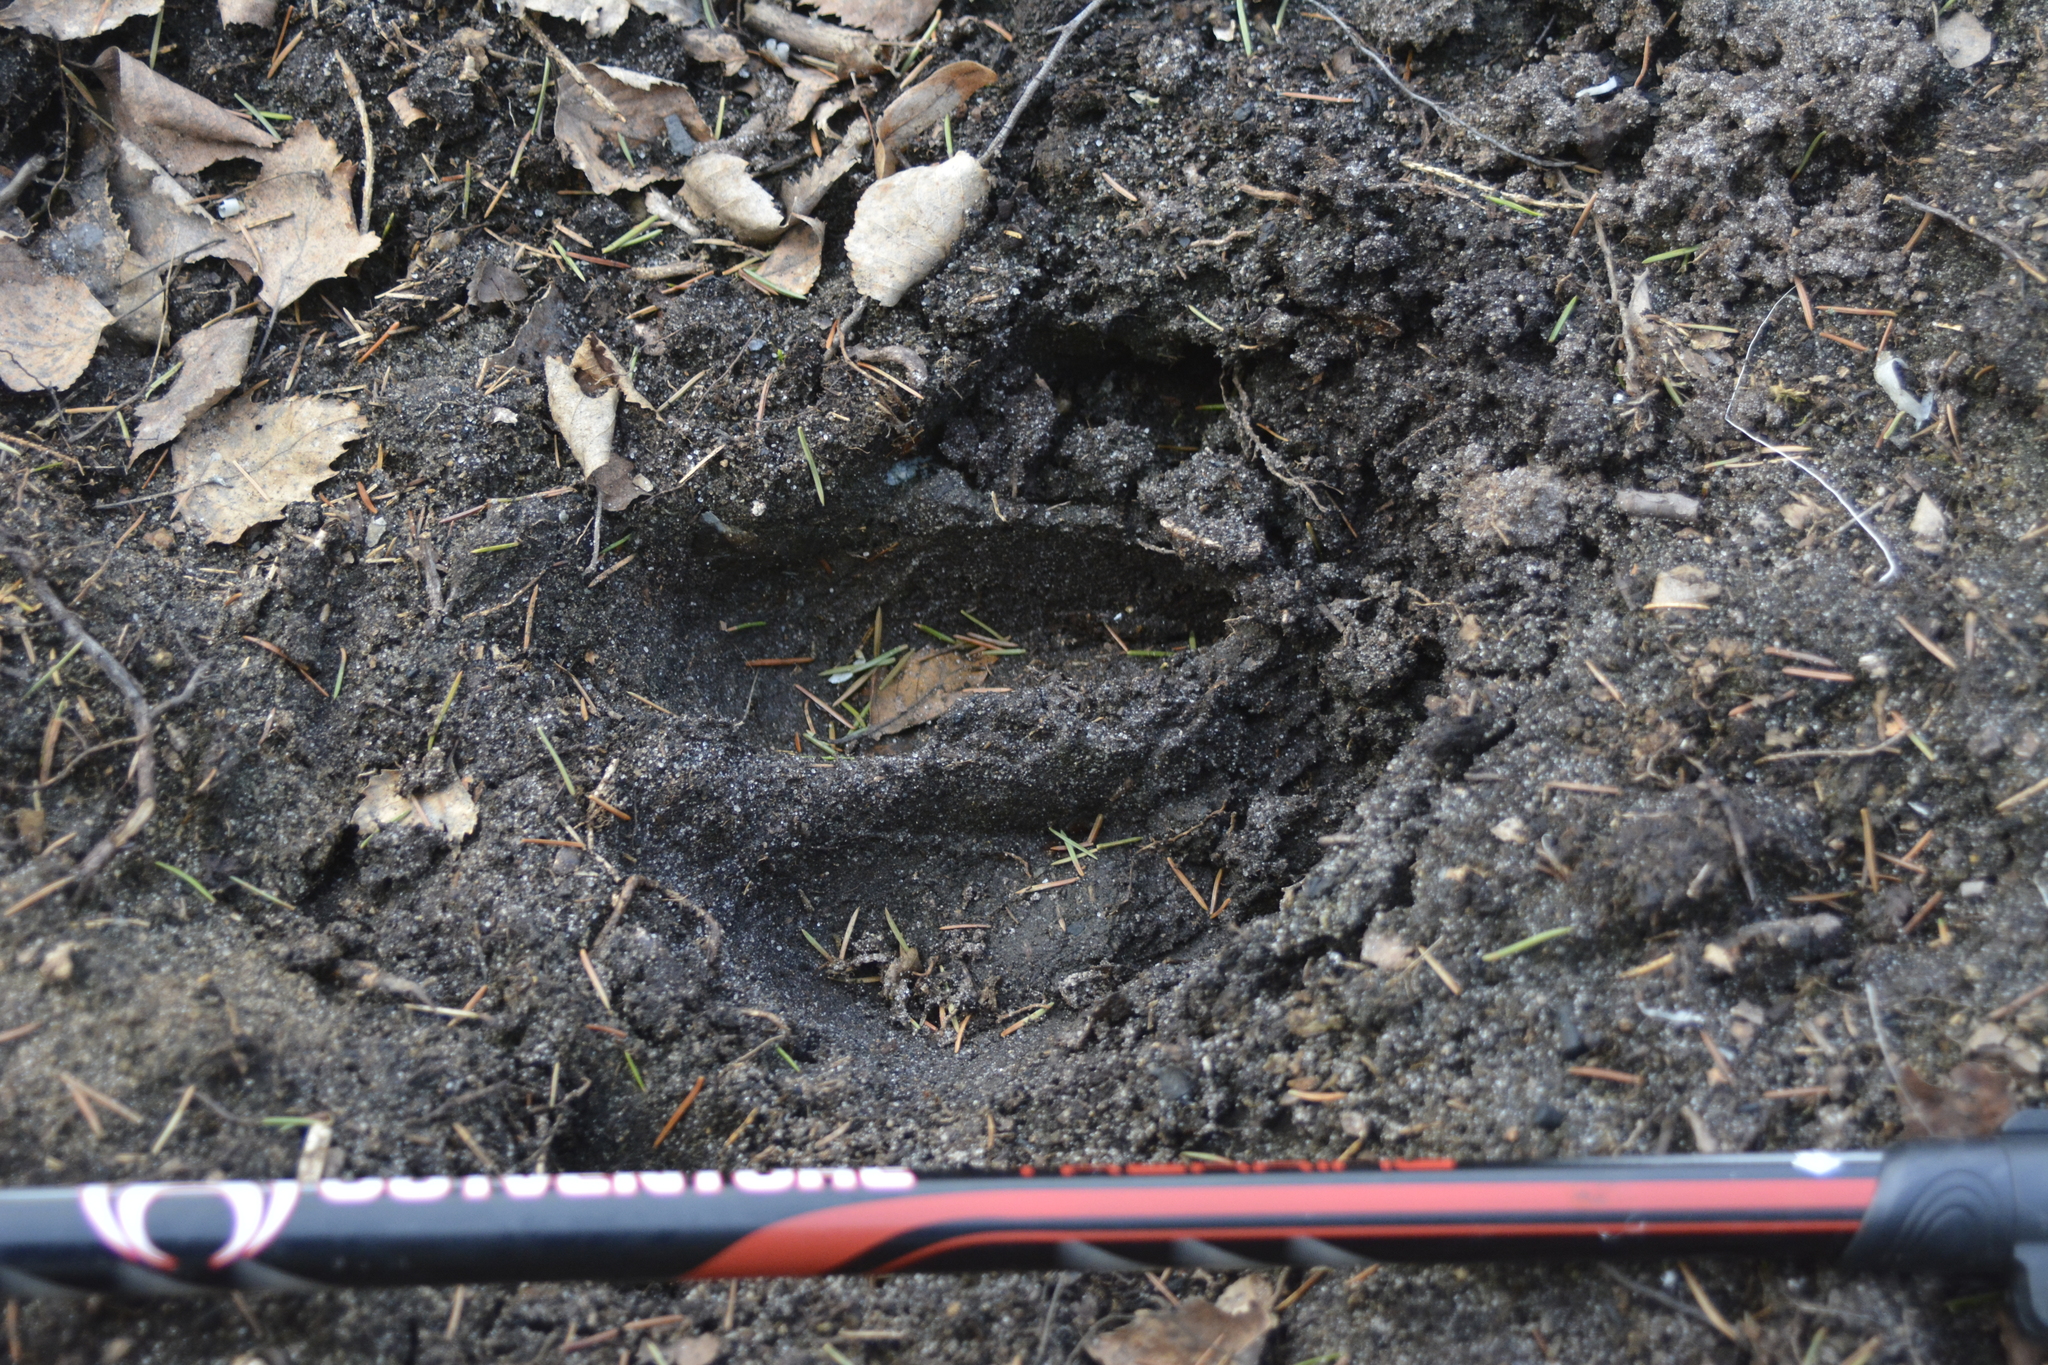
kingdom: Animalia
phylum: Chordata
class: Mammalia
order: Artiodactyla
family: Cervidae
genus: Alces
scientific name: Alces alces
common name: Moose
